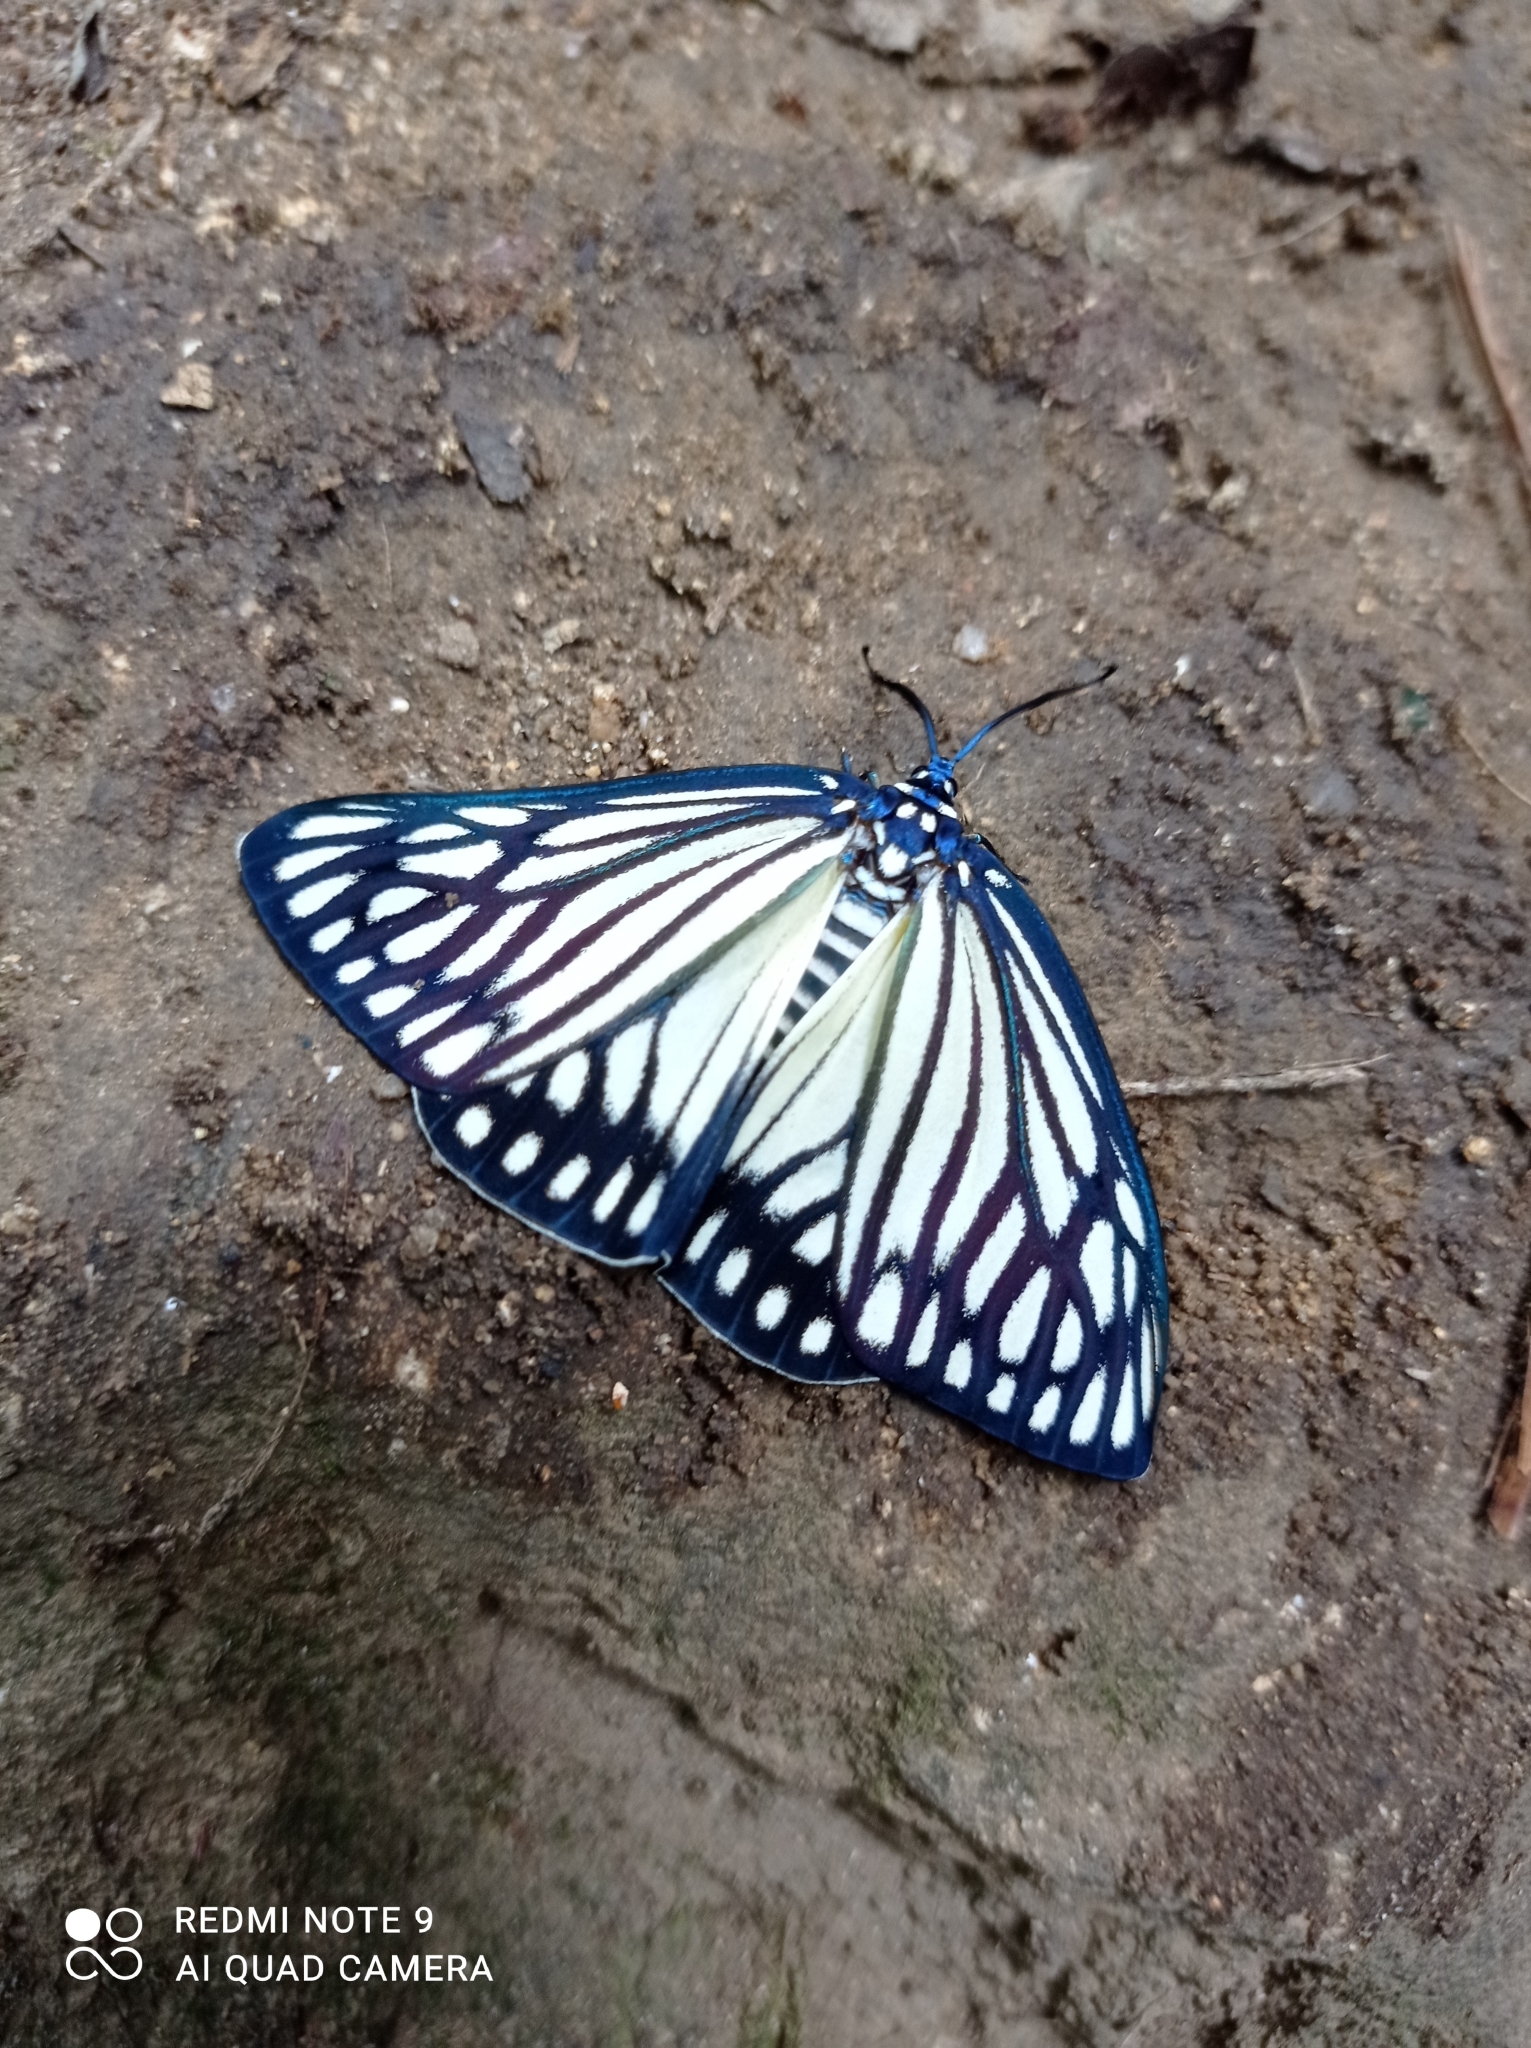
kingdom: Animalia
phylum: Arthropoda
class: Insecta
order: Lepidoptera
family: Zygaenidae
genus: Cyclosia
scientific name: Cyclosia papilionaris
